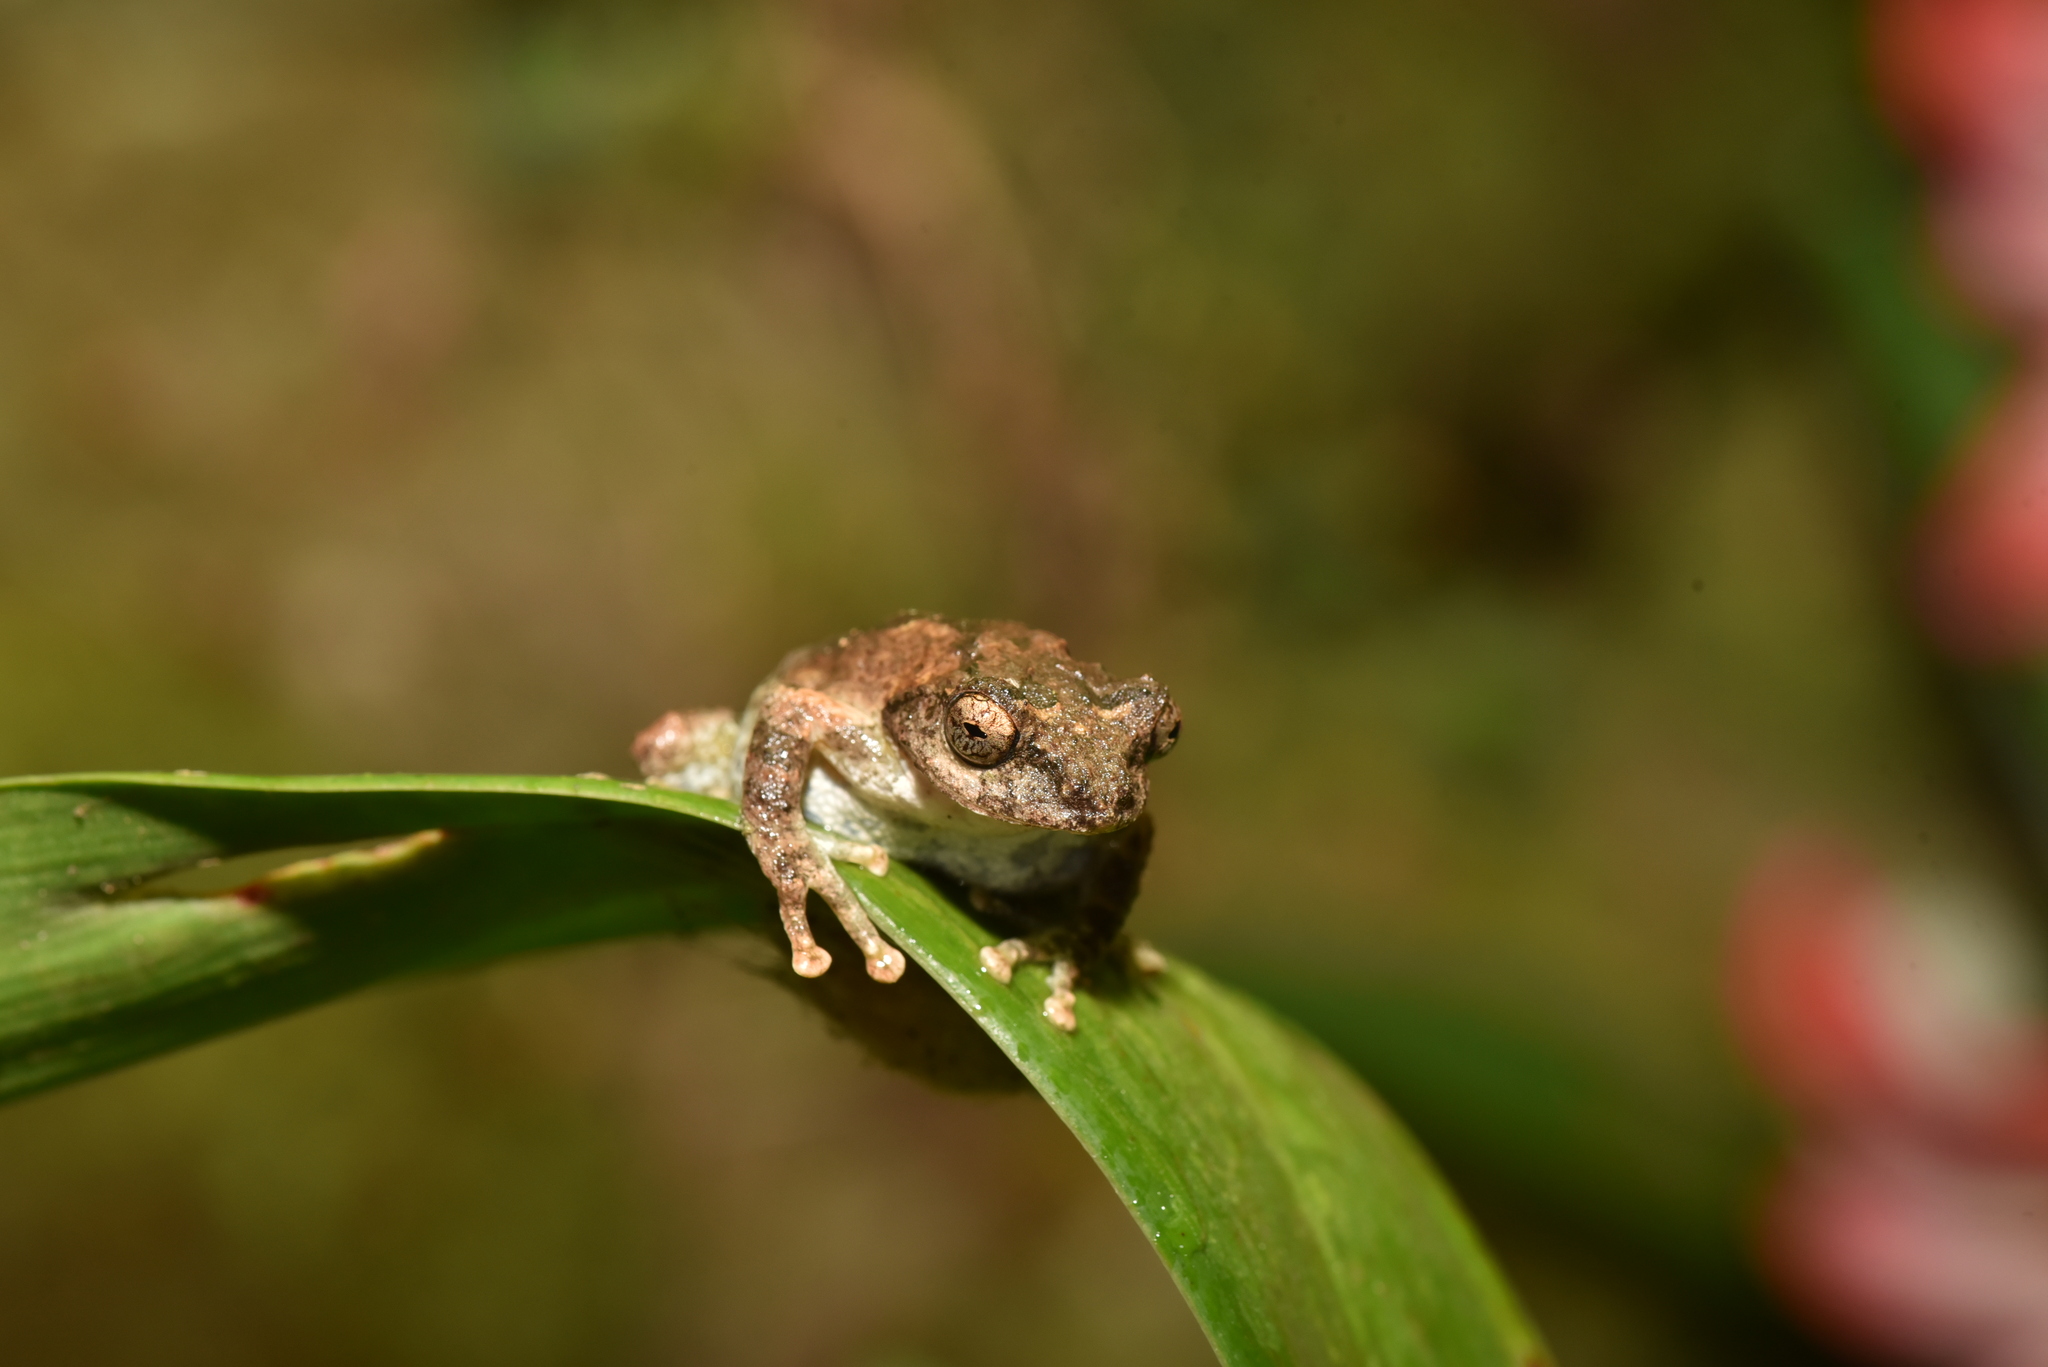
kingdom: Animalia
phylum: Chordata
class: Amphibia
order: Anura
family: Rhacophoridae
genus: Kurixalus
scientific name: Kurixalus idiootocus
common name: Temple treefrog
